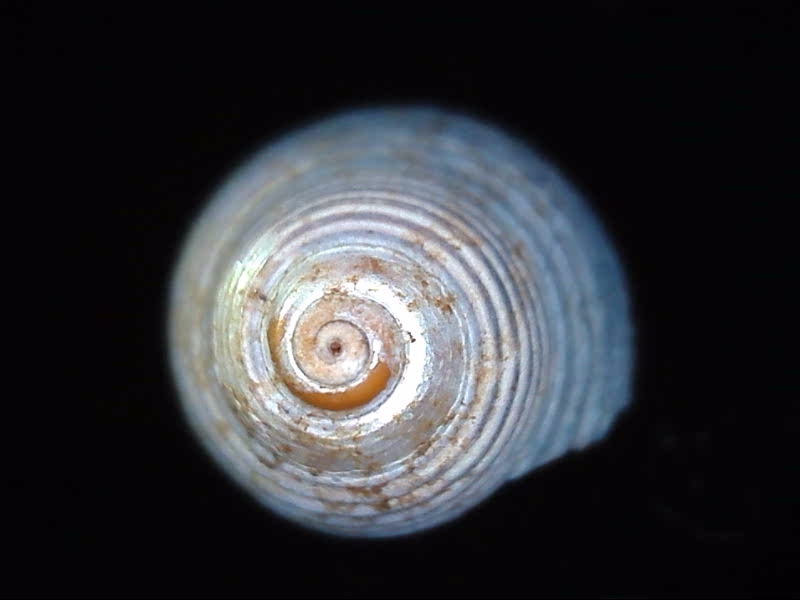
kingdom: Animalia
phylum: Mollusca
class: Gastropoda
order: Trochida
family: Trochidae
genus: Micrelenchus
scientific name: Micrelenchus huttonii
